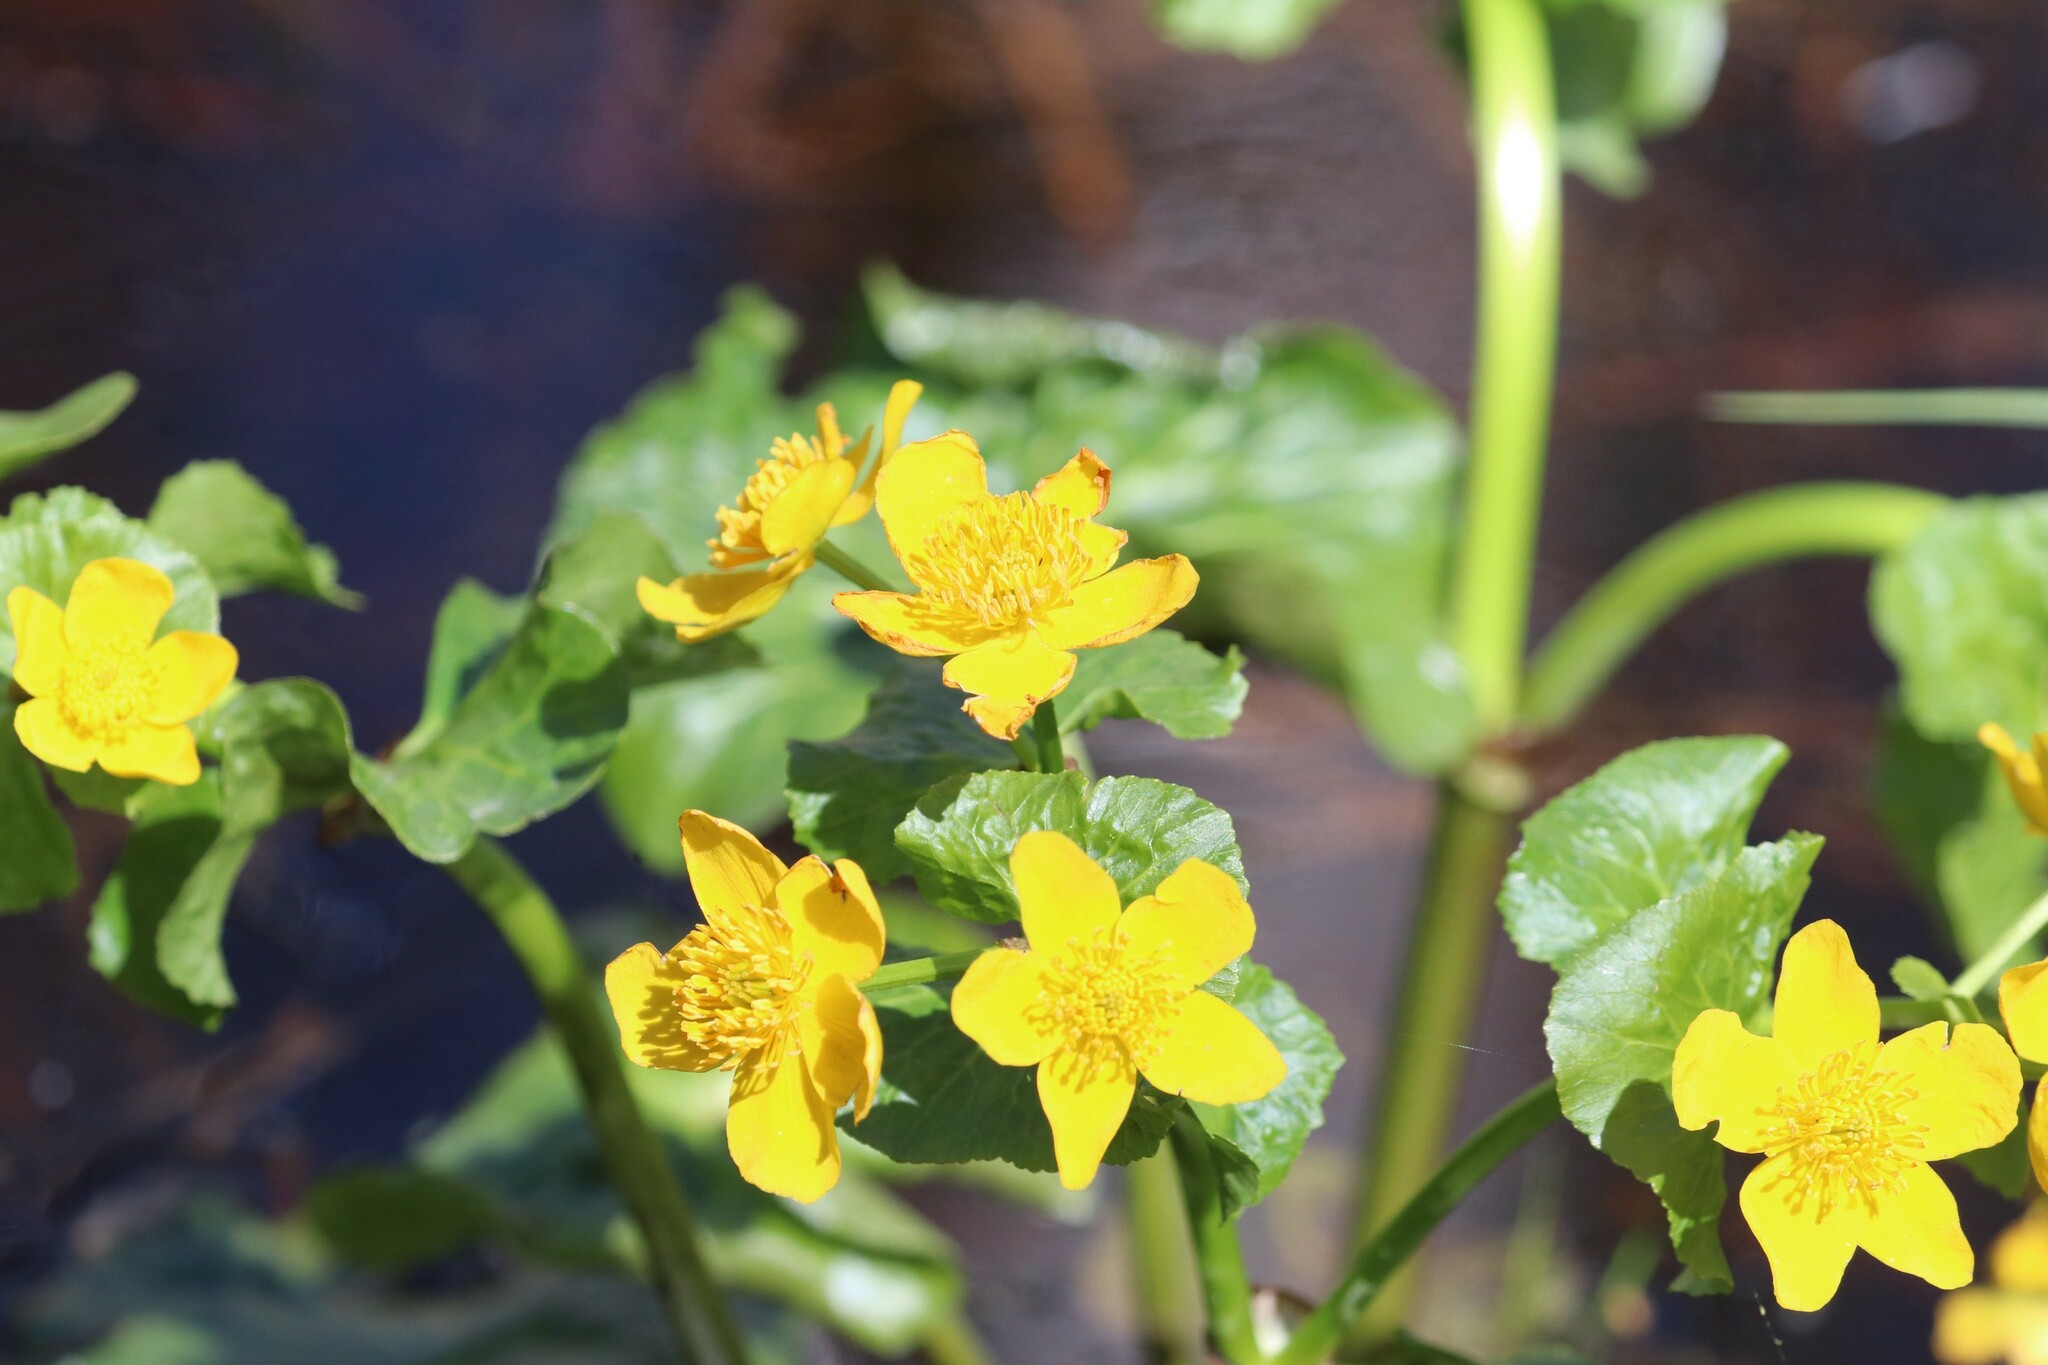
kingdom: Plantae
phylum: Tracheophyta
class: Magnoliopsida
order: Ranunculales
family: Ranunculaceae
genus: Caltha
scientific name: Caltha palustris
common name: Marsh marigold
